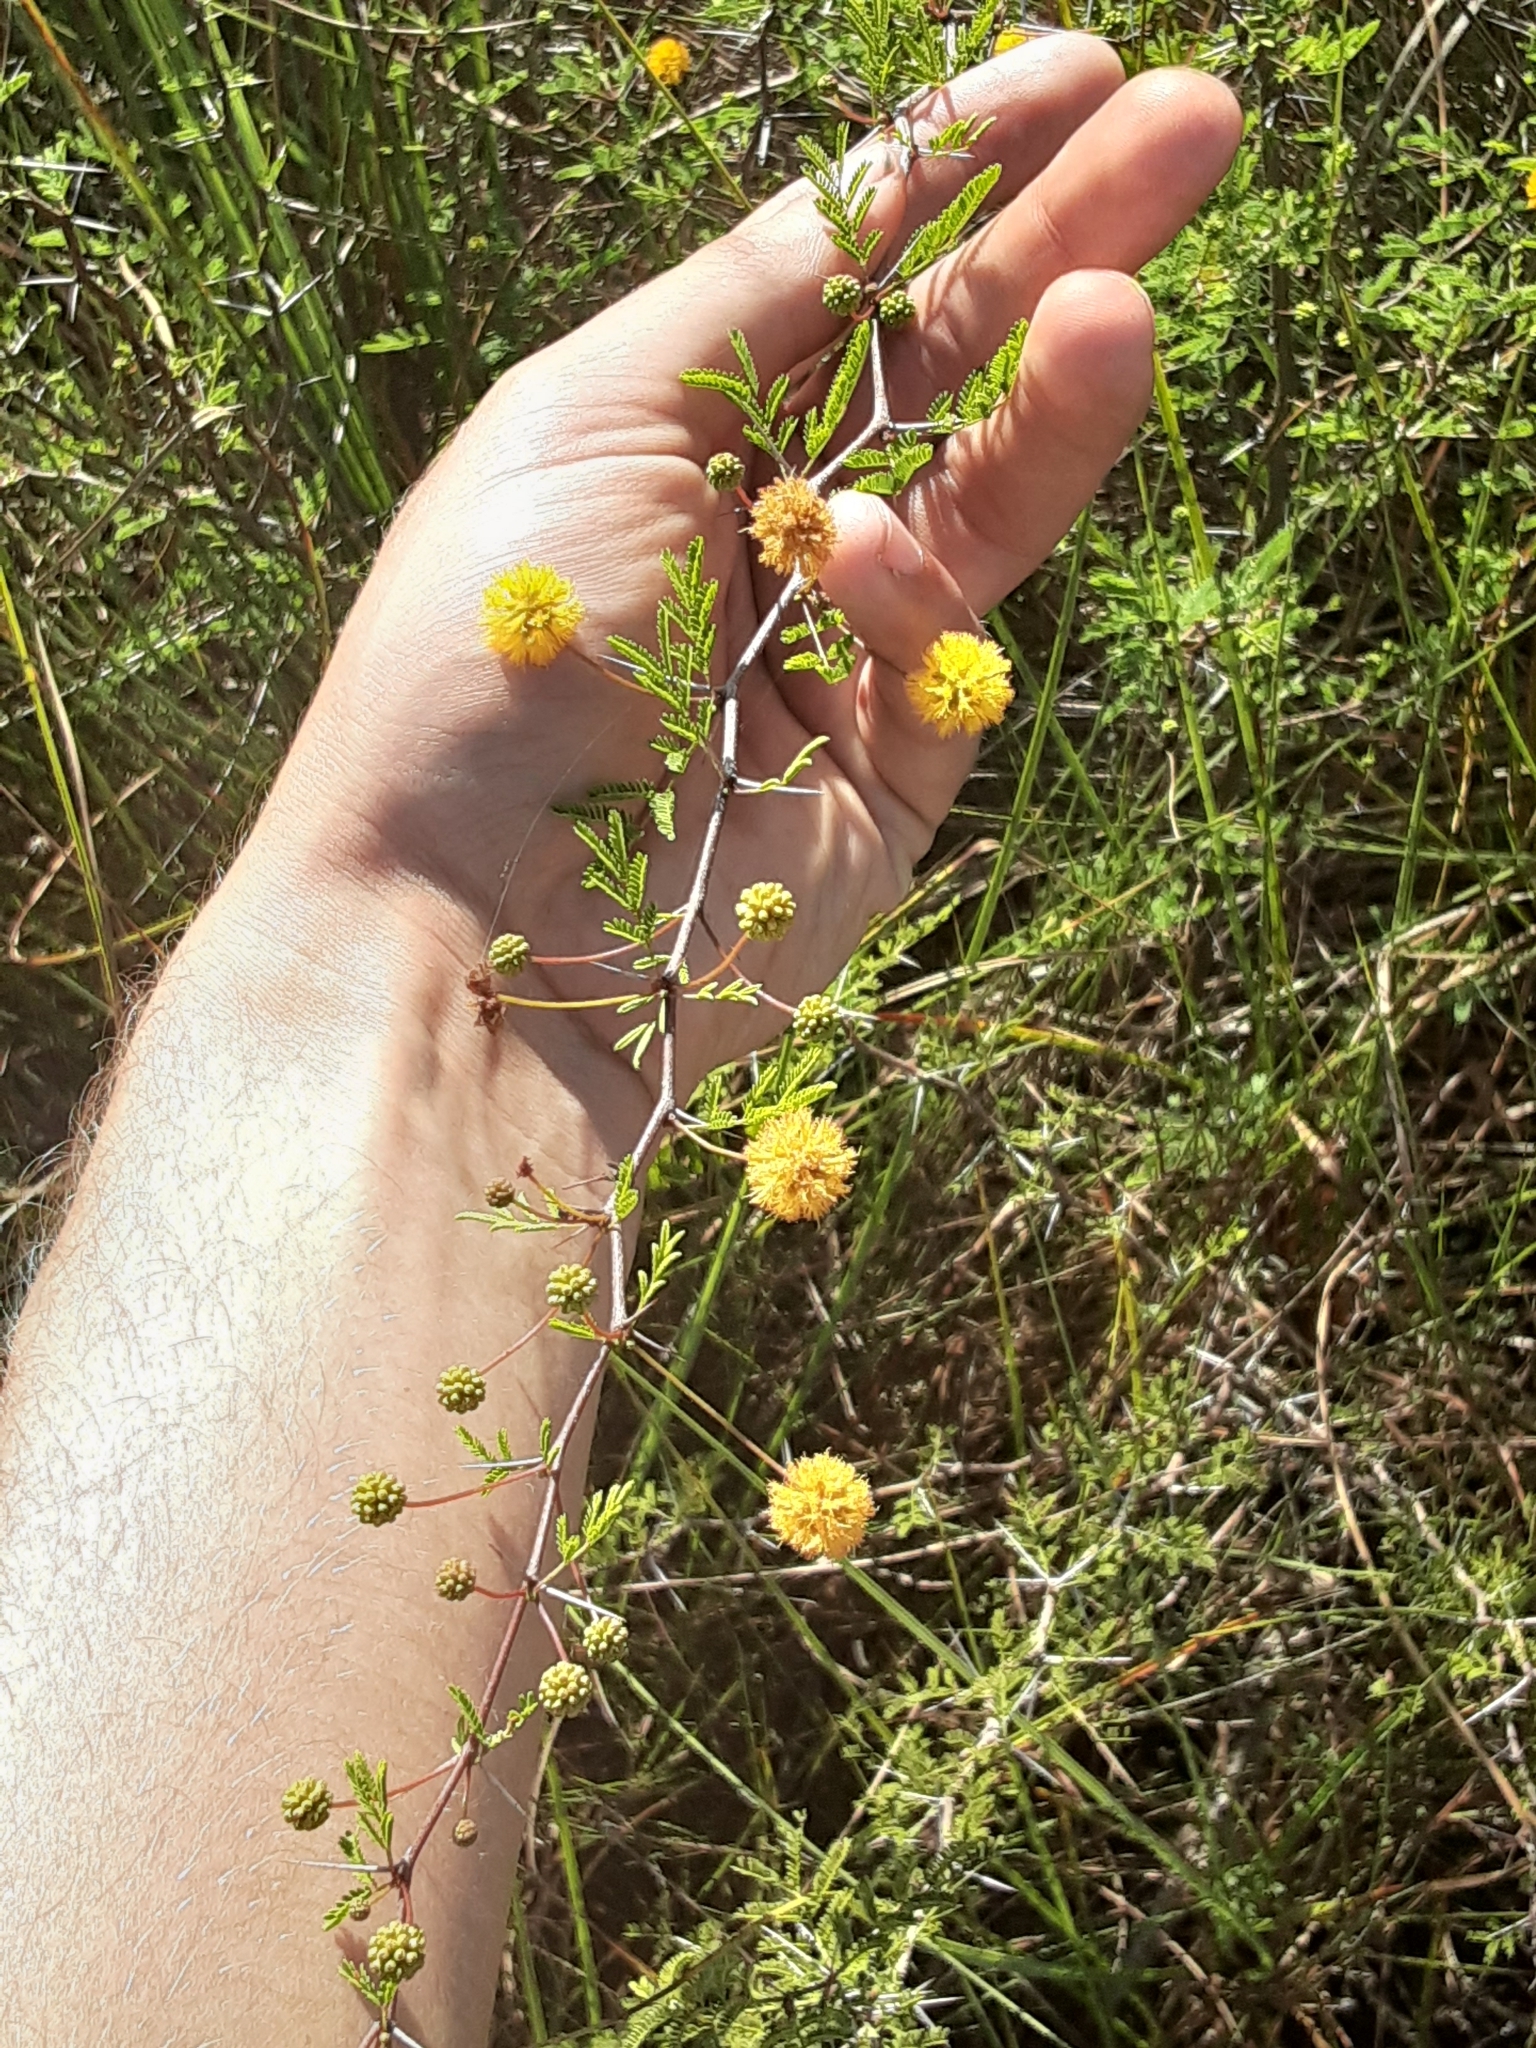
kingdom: Plantae
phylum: Tracheophyta
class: Magnoliopsida
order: Fabales
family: Fabaceae
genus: Vachellia
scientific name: Vachellia farnesiana
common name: Sweet acacia
